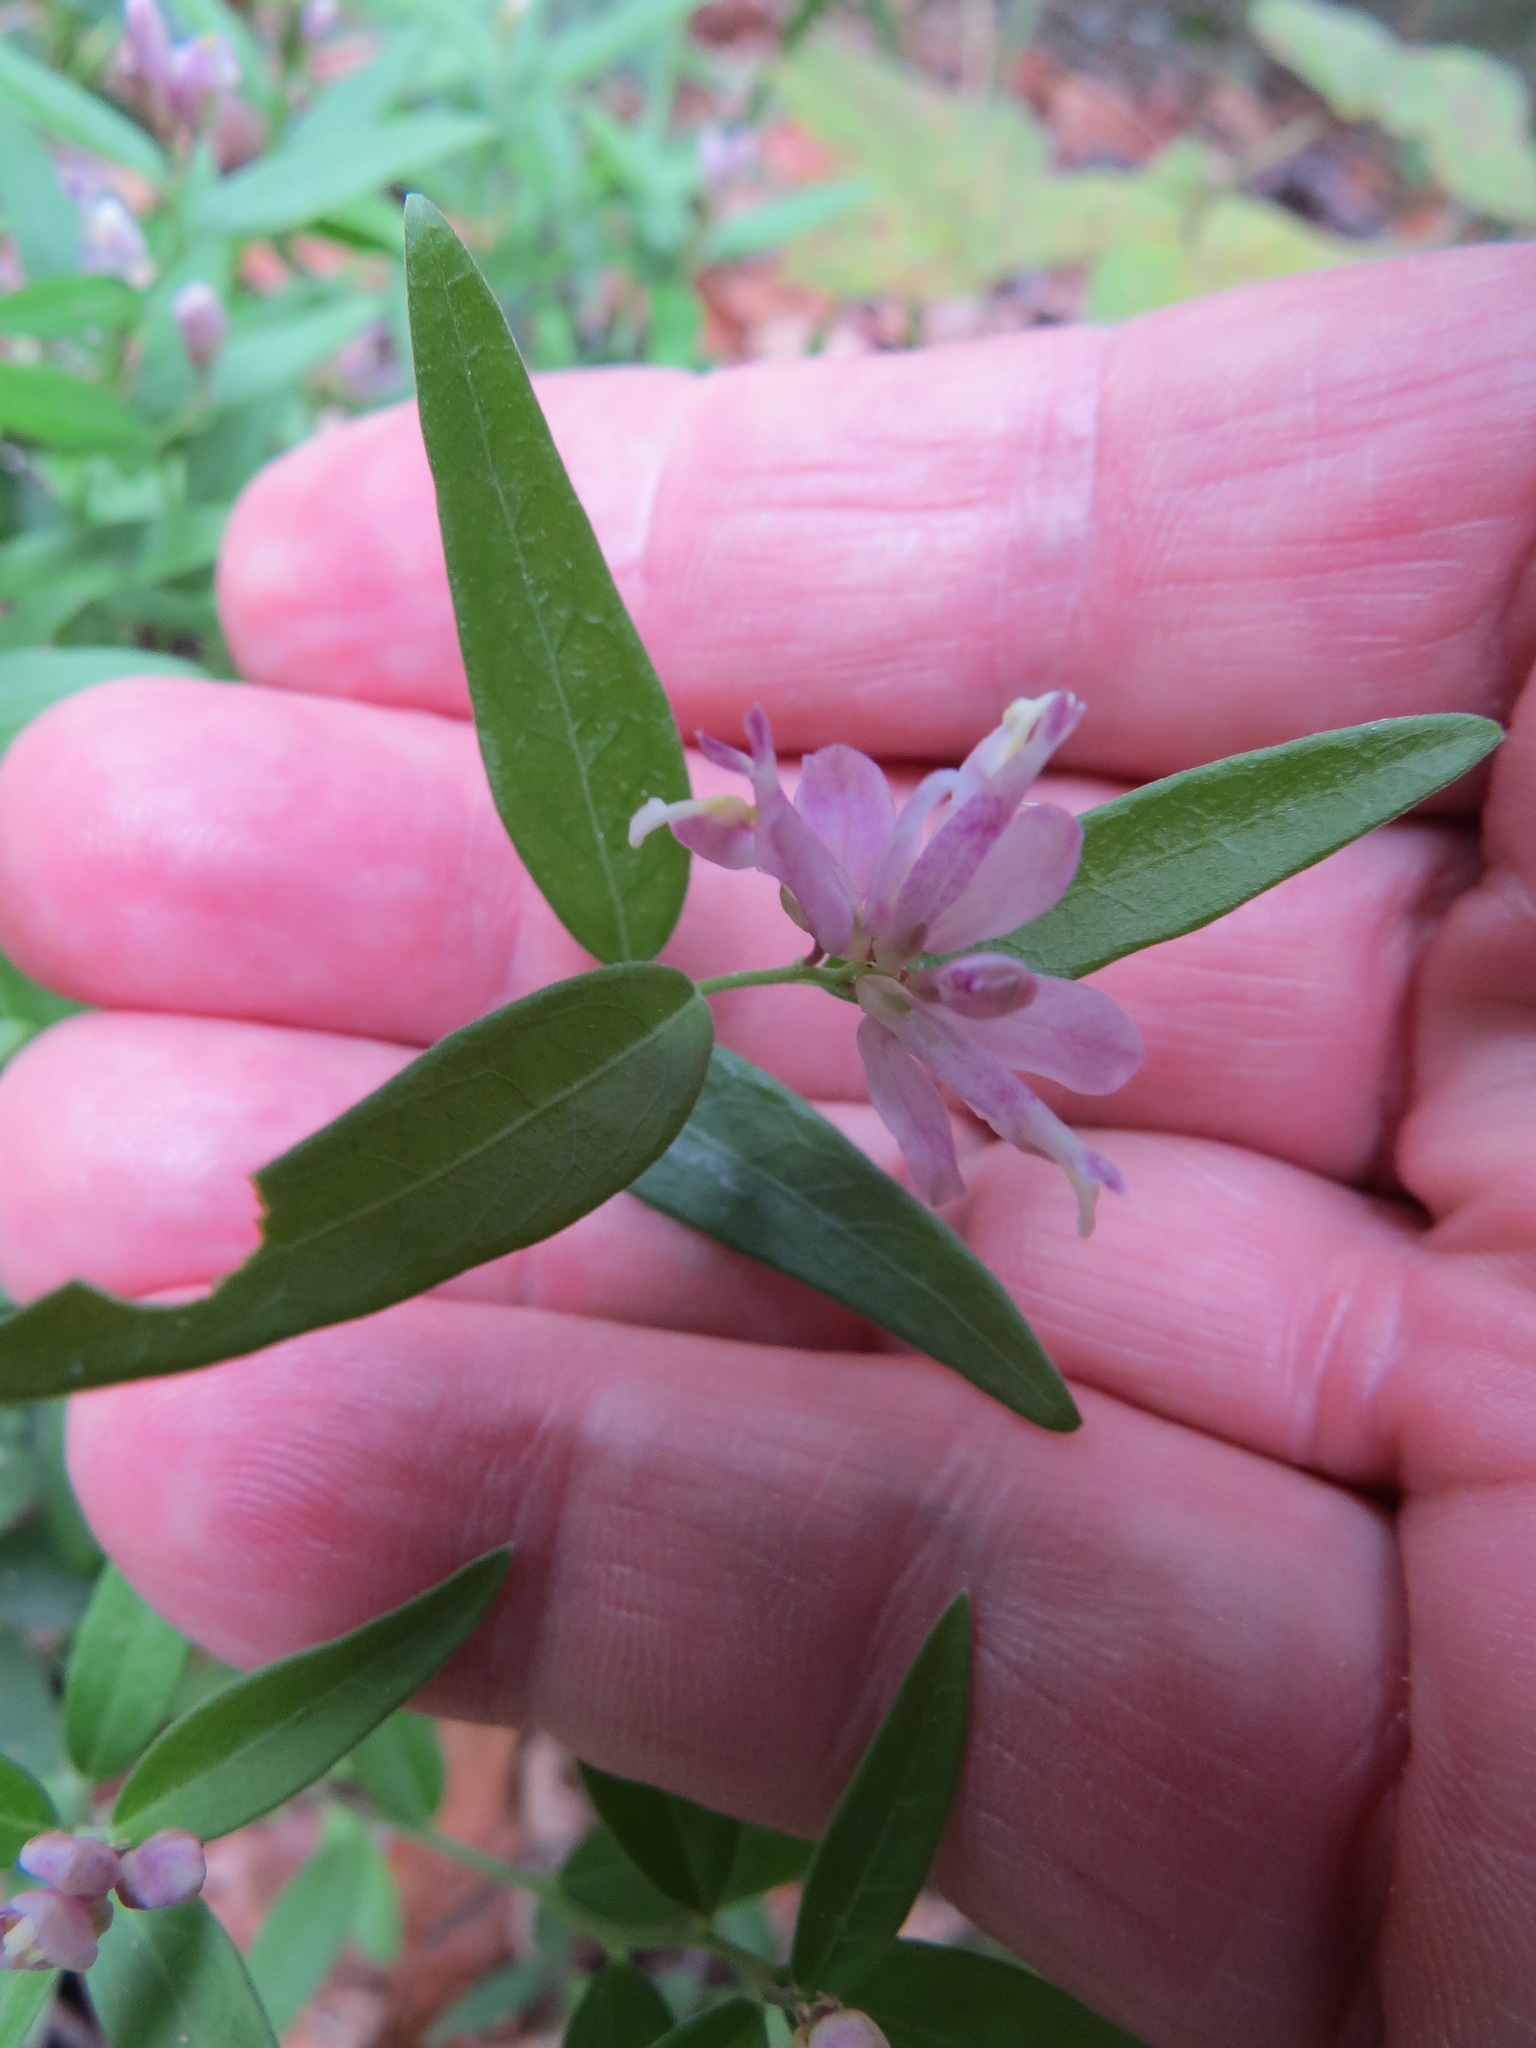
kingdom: Plantae
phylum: Tracheophyta
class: Magnoliopsida
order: Fabales
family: Polygalaceae
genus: Rhinotropis
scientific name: Rhinotropis californica
